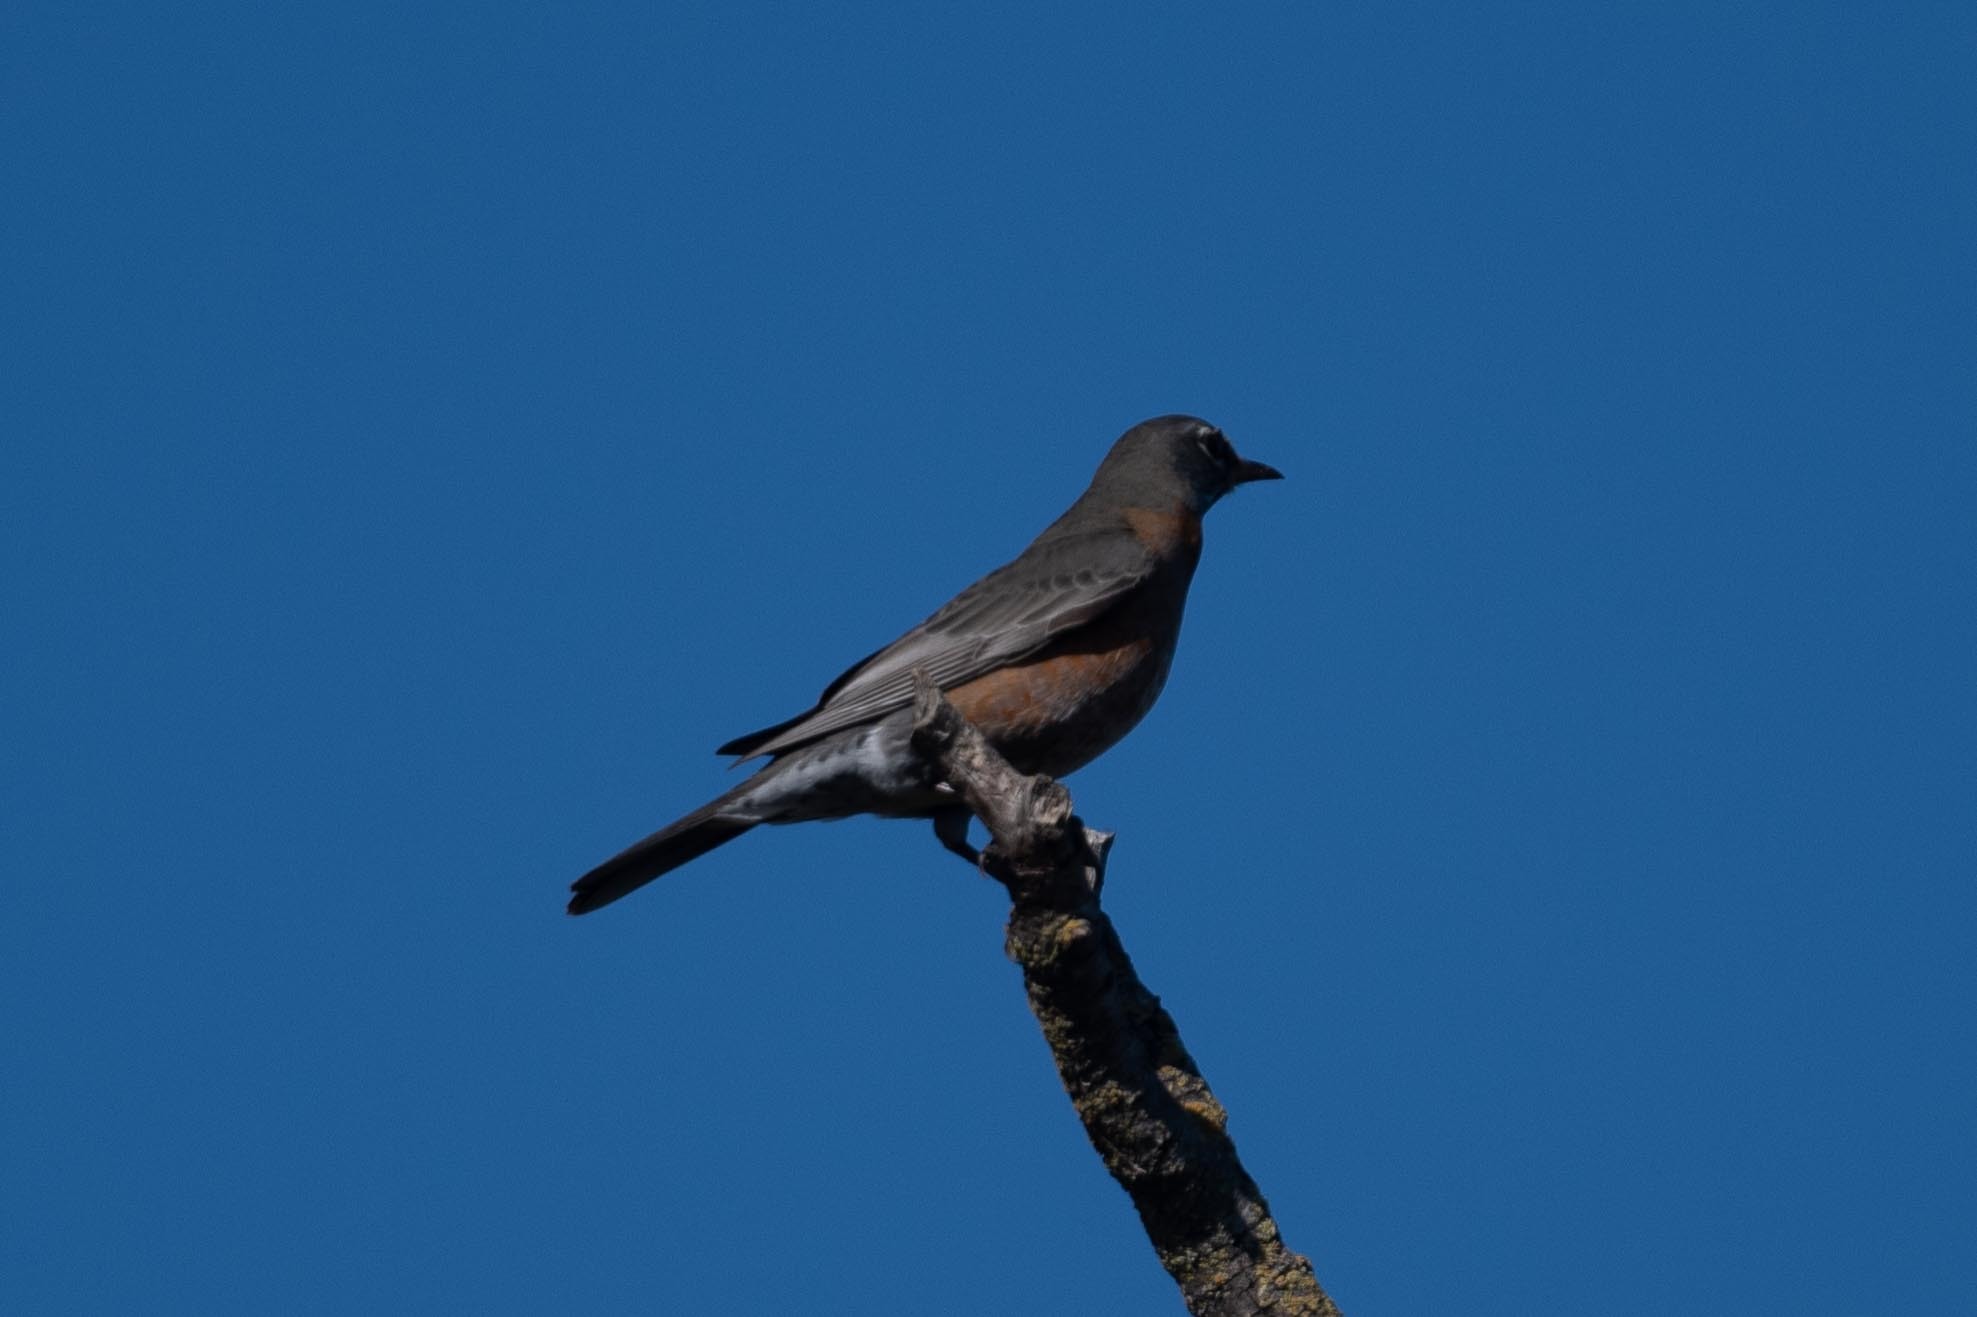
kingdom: Animalia
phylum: Chordata
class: Aves
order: Passeriformes
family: Turdidae
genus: Turdus
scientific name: Turdus migratorius
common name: American robin
